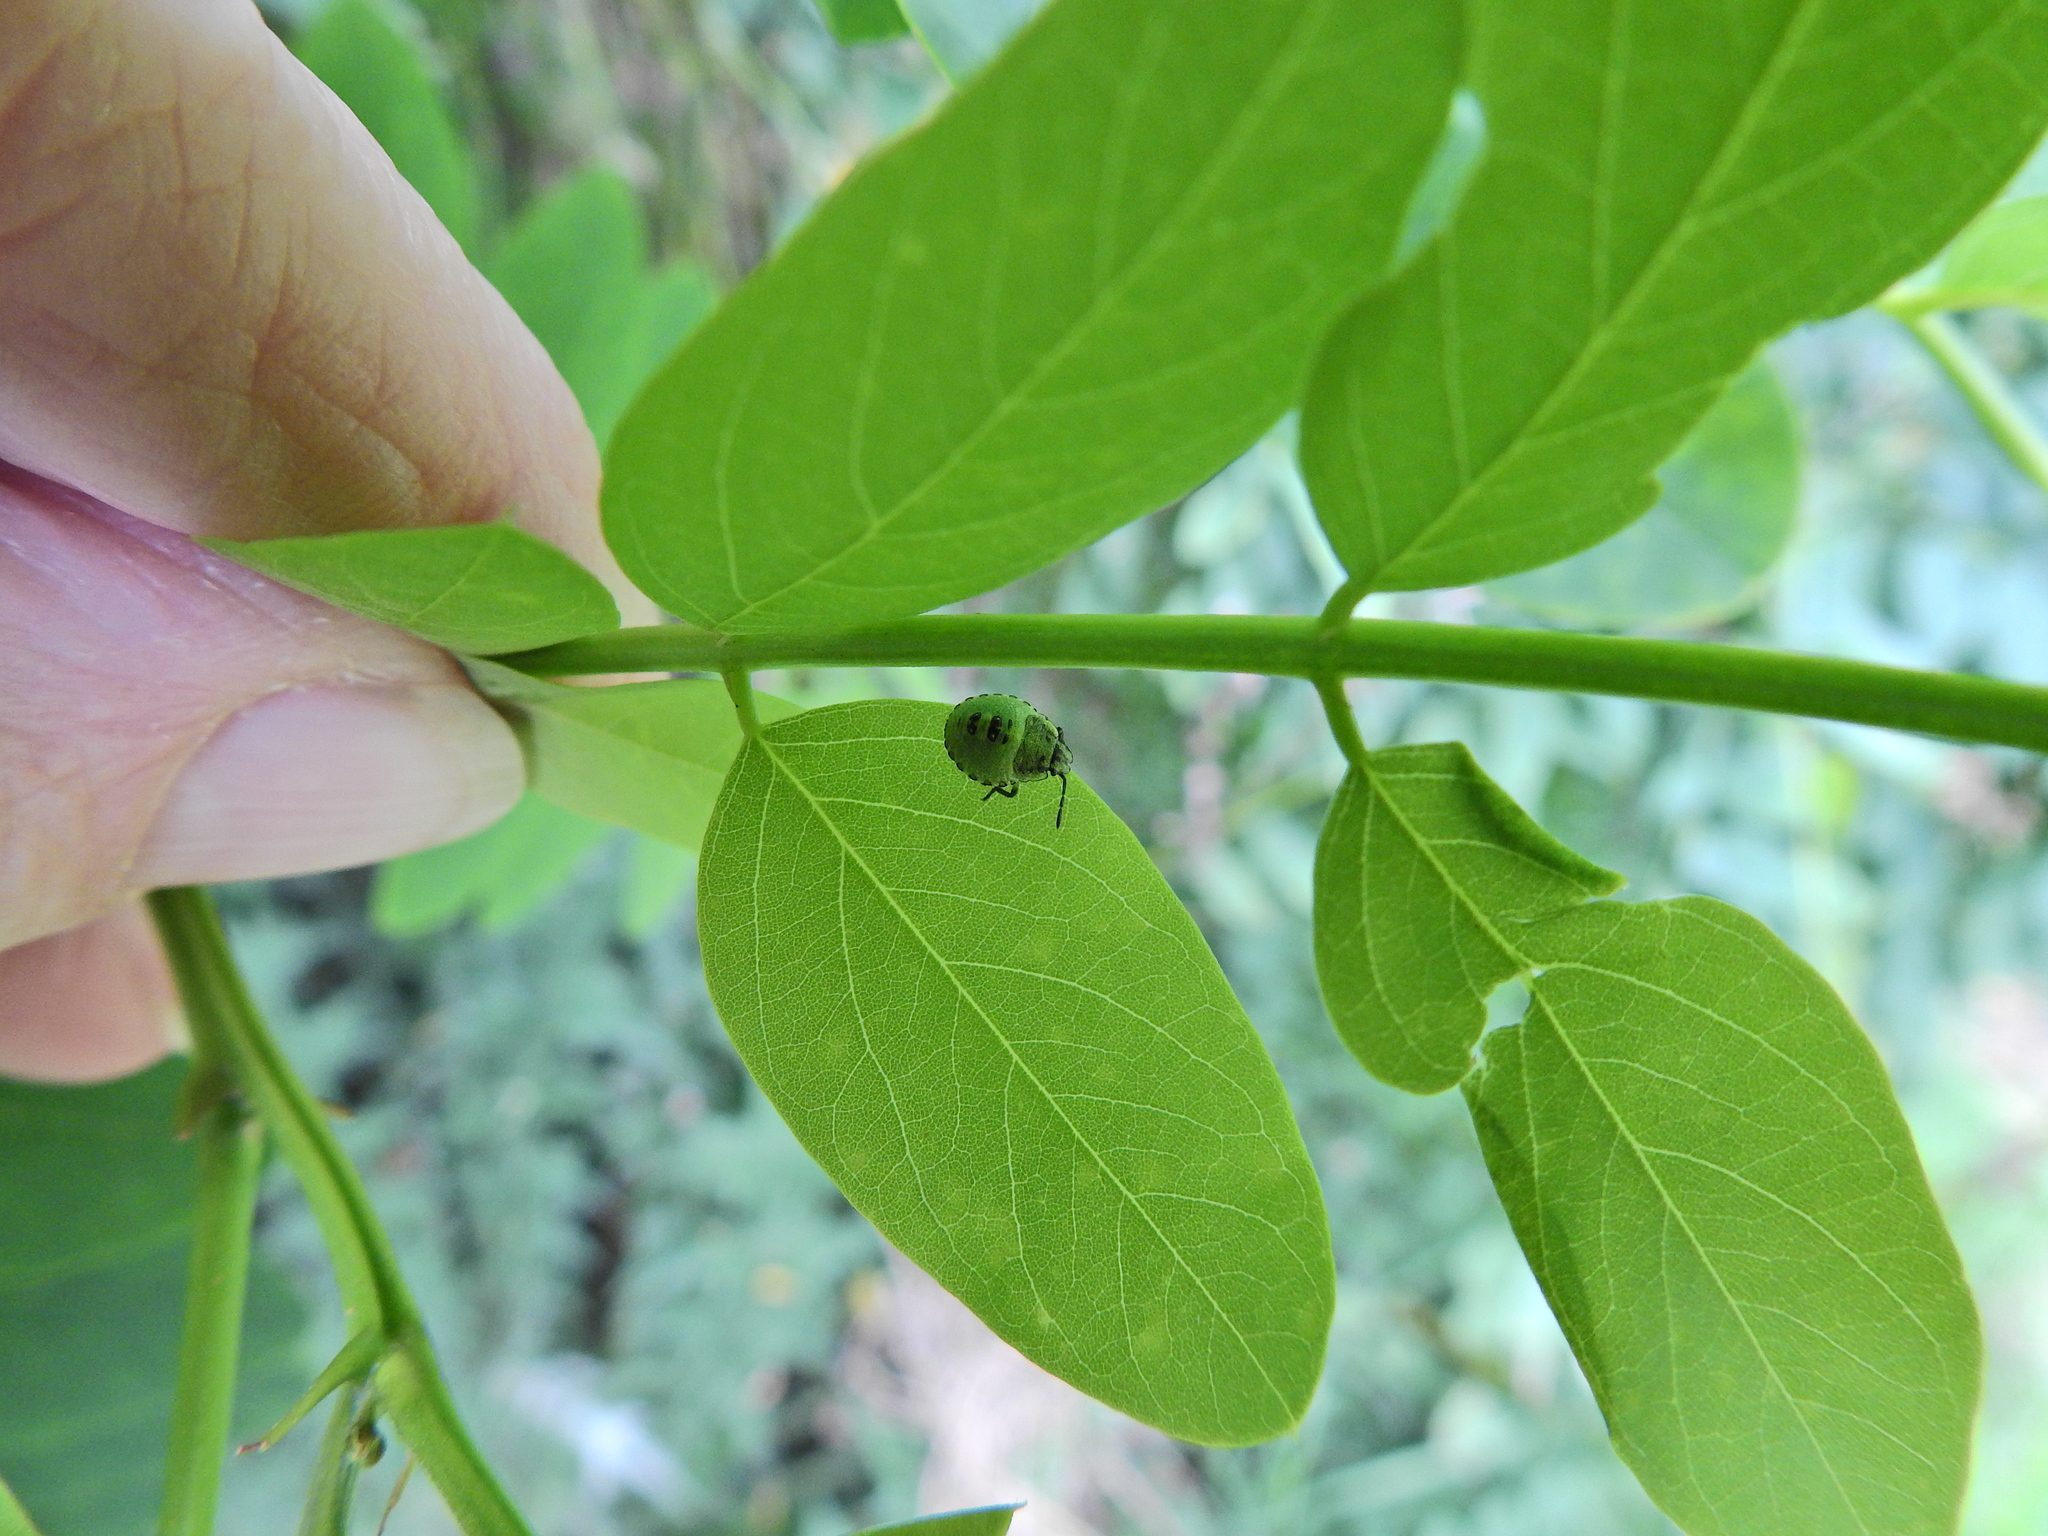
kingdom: Animalia
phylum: Arthropoda
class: Insecta
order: Hemiptera
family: Pentatomidae
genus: Palomena
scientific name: Palomena prasina
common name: Green shieldbug
